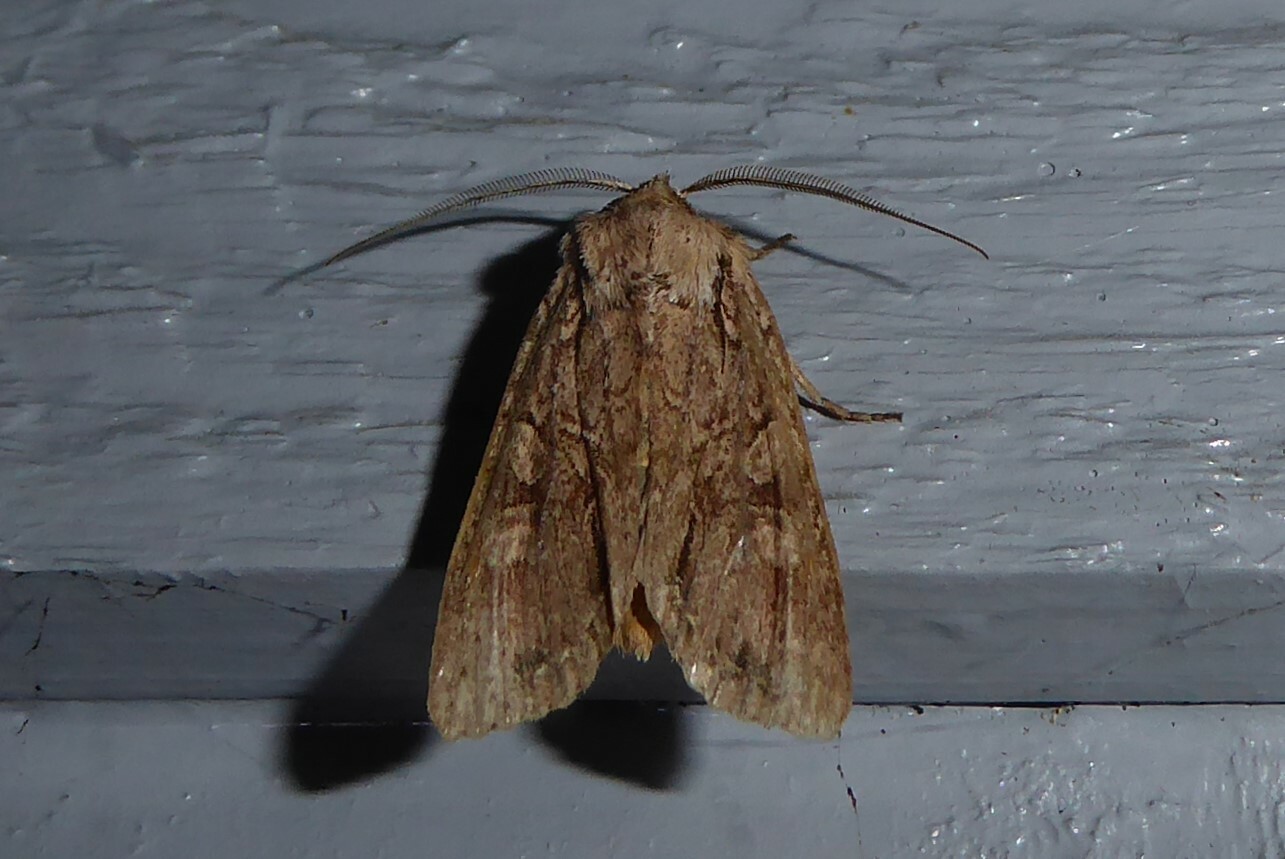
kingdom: Animalia
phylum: Arthropoda
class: Insecta
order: Lepidoptera
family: Noctuidae
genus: Ichneutica
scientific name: Ichneutica
